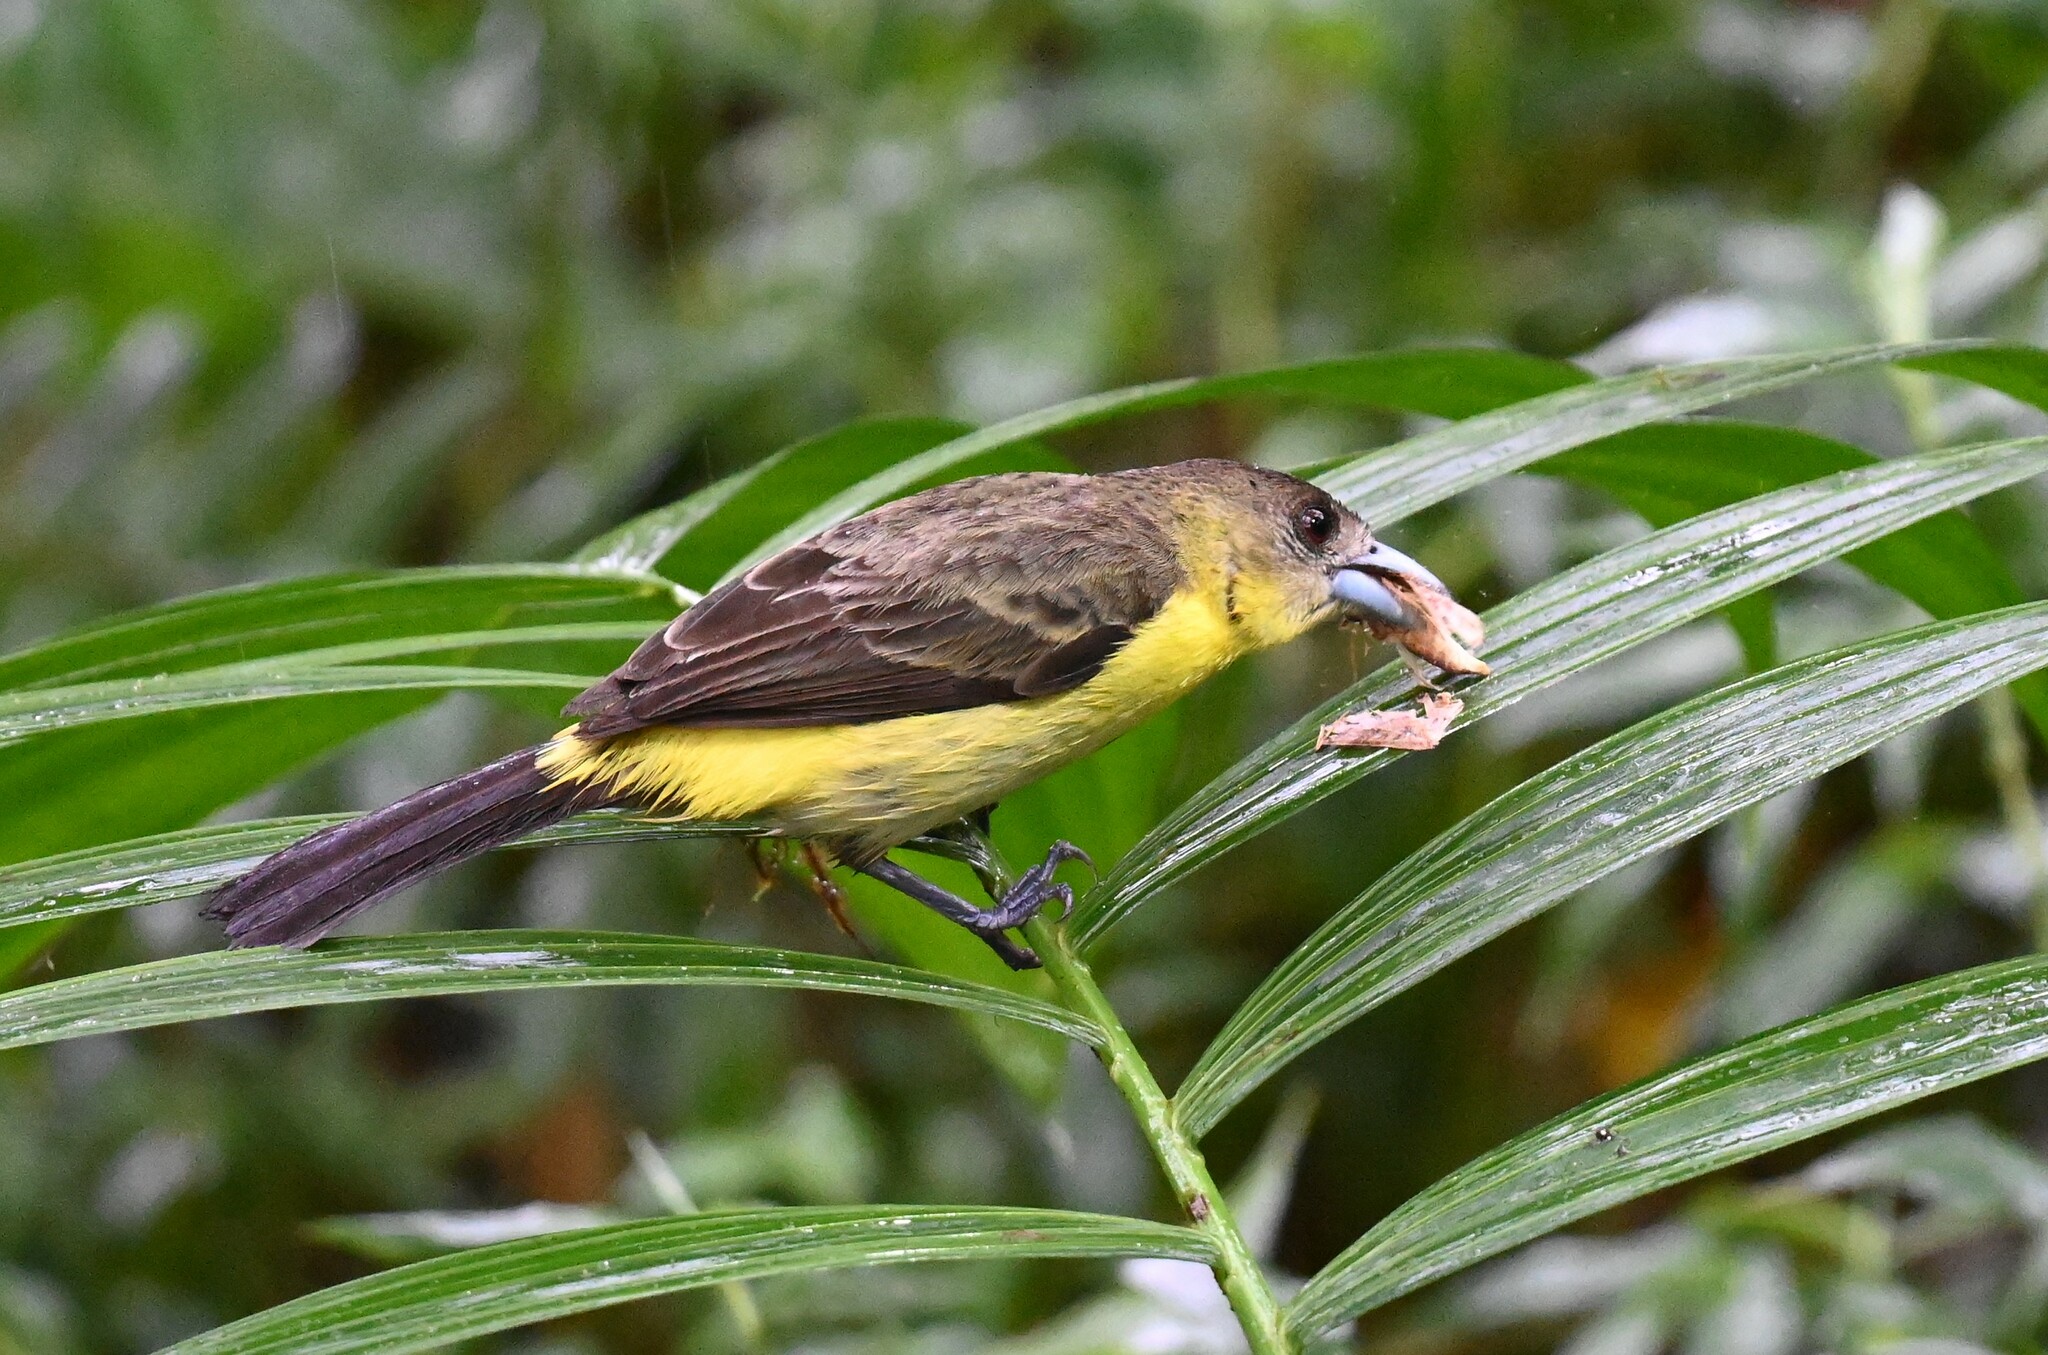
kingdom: Animalia
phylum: Chordata
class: Aves
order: Passeriformes
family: Thraupidae
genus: Ramphocelus
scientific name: Ramphocelus flammigerus
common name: Flame-rumped tanager
